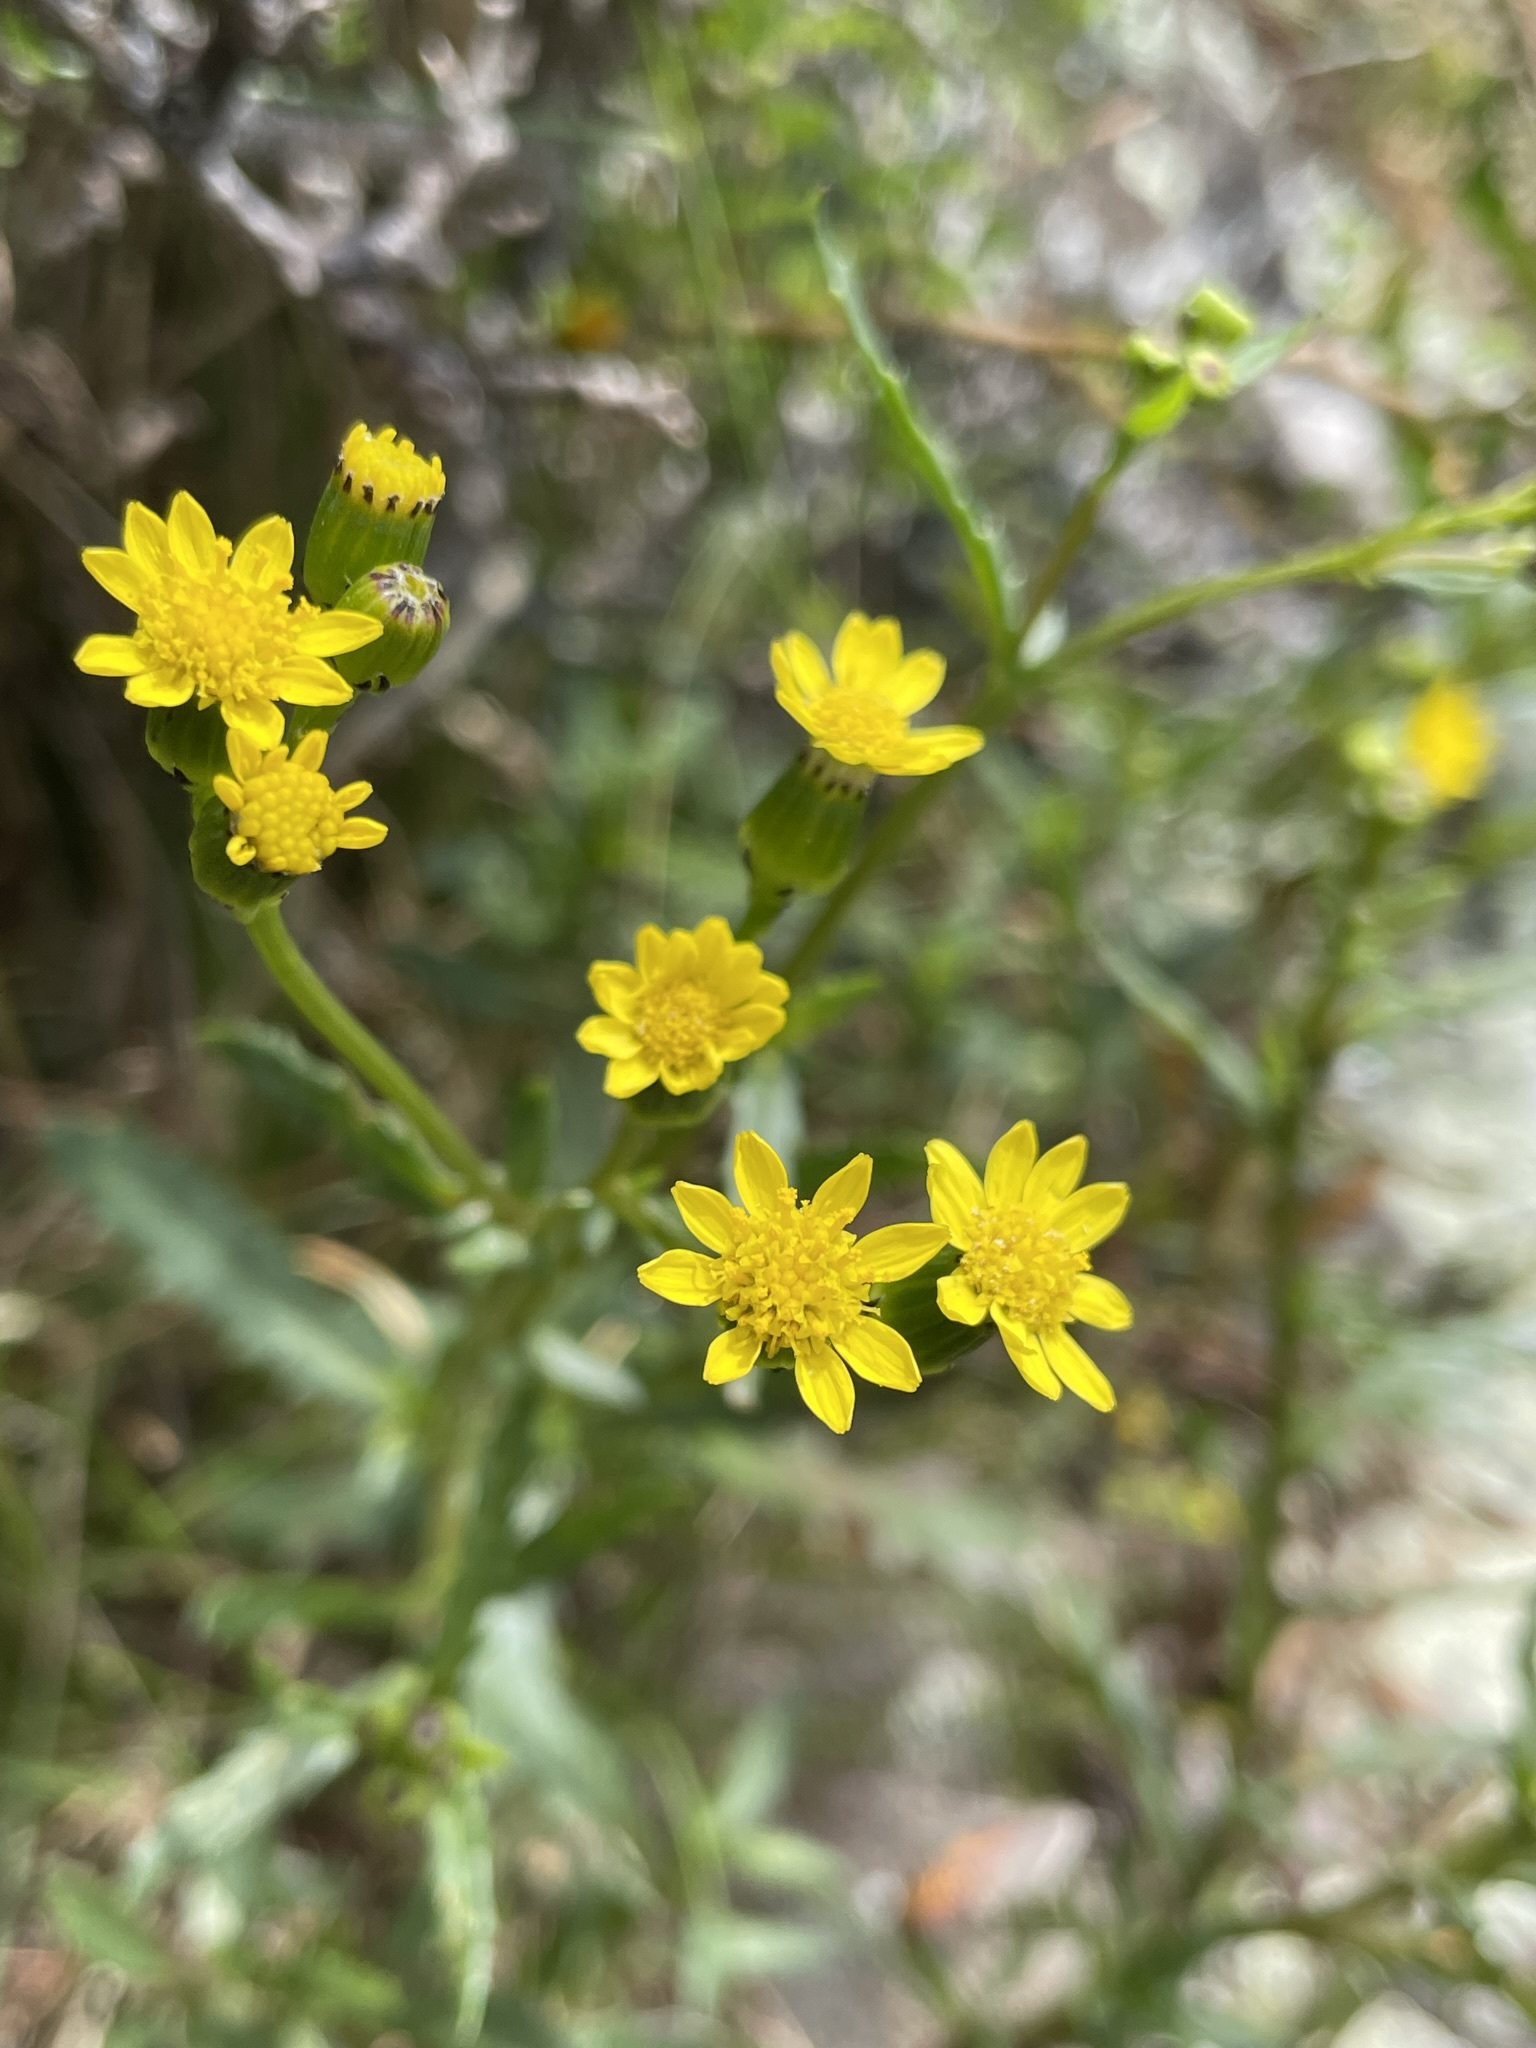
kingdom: Plantae
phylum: Tracheophyta
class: Magnoliopsida
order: Asterales
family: Asteraceae
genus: Senecio
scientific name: Senecio matatini
